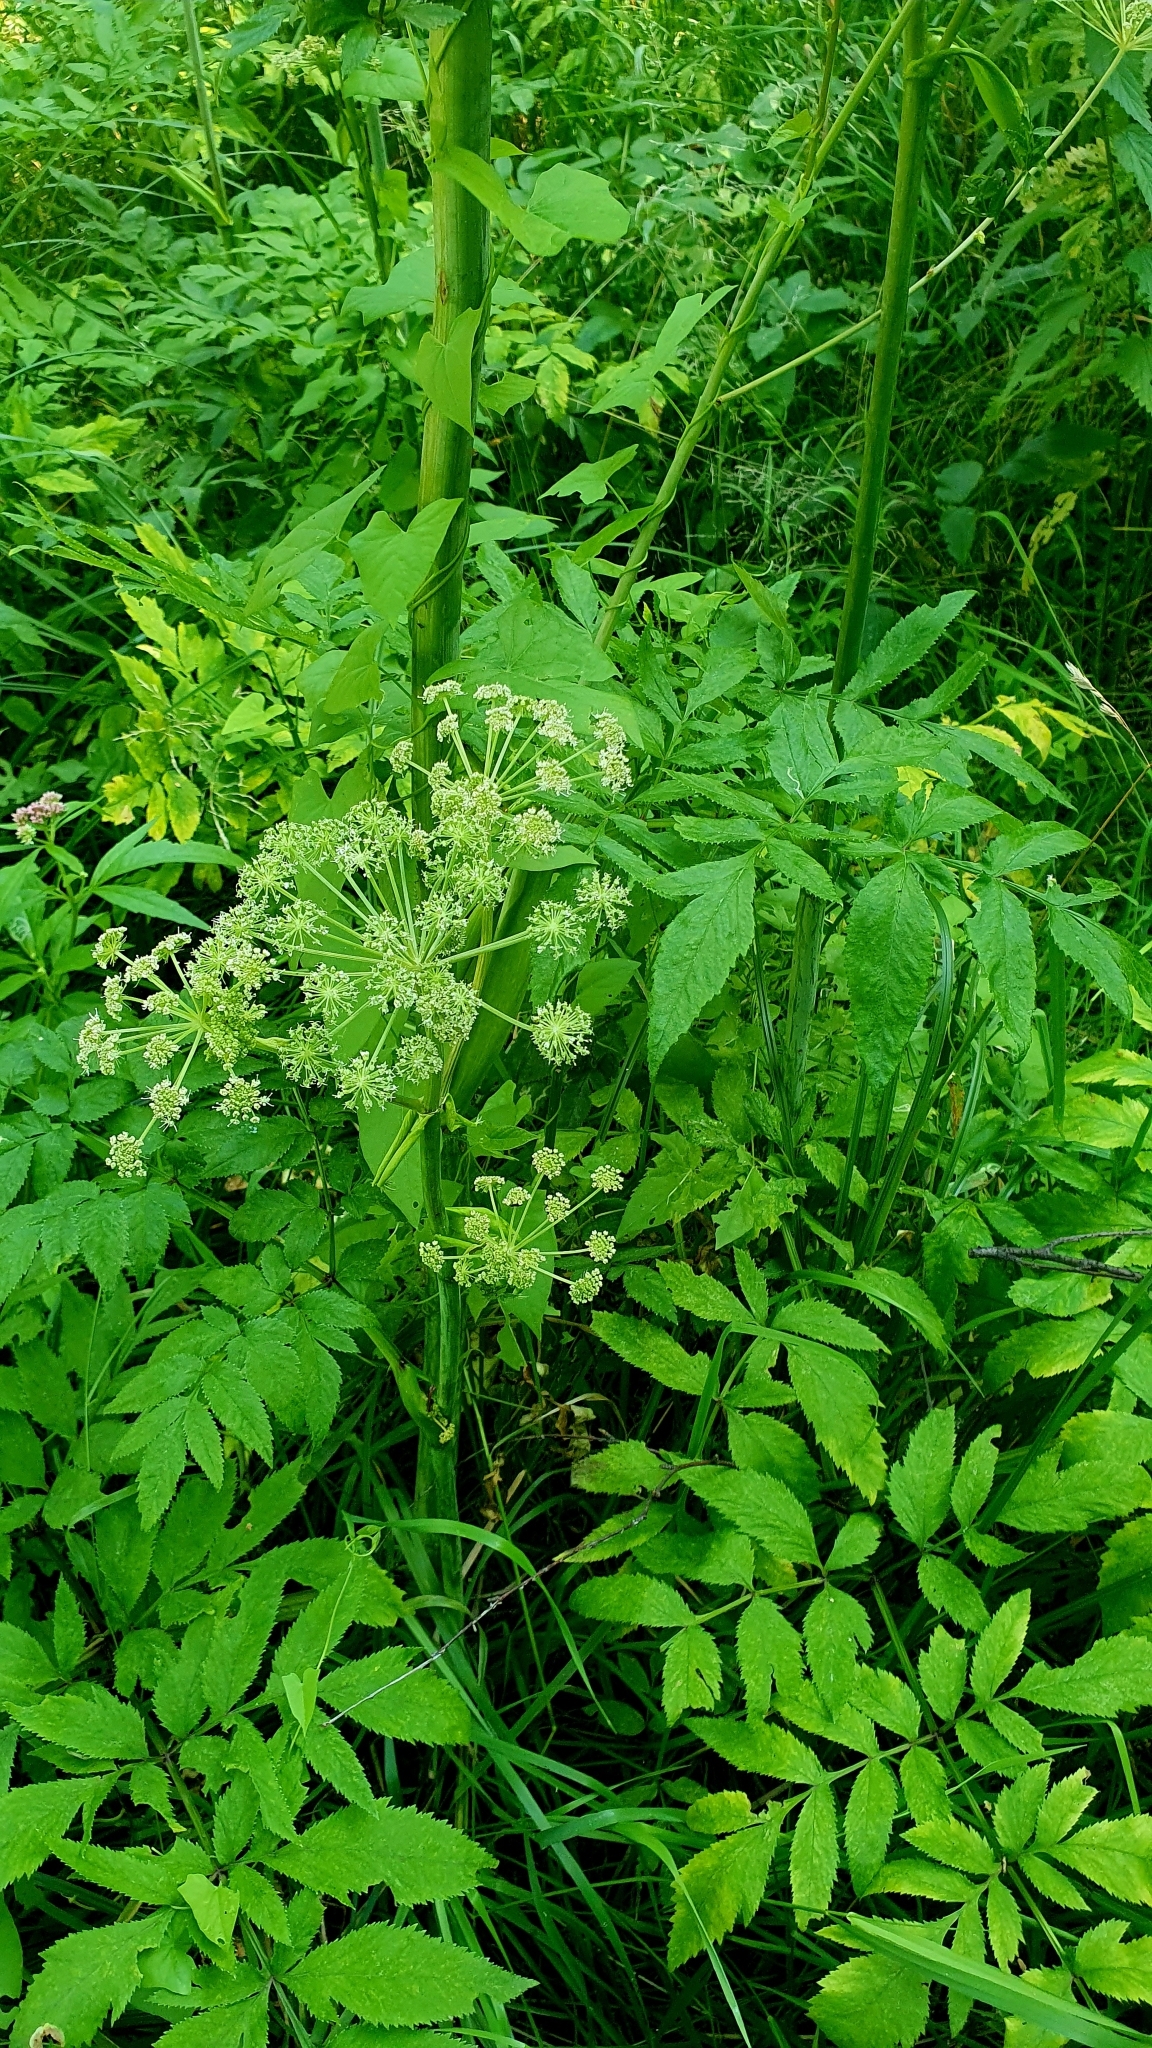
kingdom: Plantae
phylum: Tracheophyta
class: Magnoliopsida
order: Apiales
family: Apiaceae
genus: Angelica
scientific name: Angelica sylvestris
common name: Wild angelica
